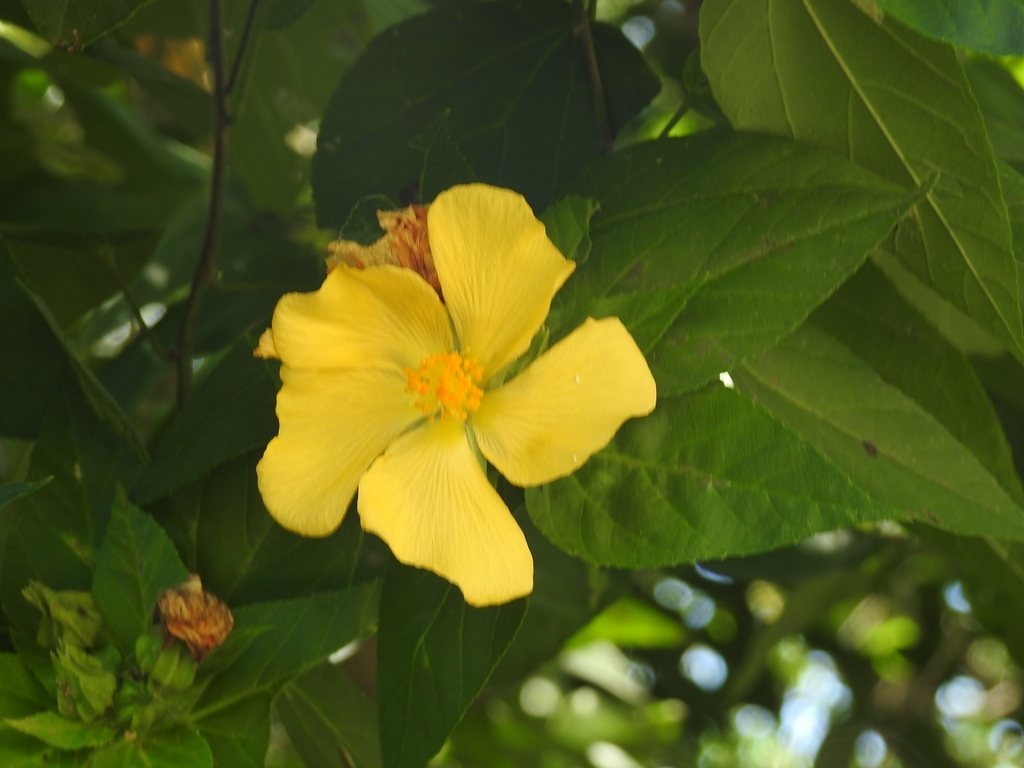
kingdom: Plantae
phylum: Tracheophyta
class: Magnoliopsida
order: Malvales
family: Malvaceae
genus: Dendrosida
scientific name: Dendrosida sharpiana
